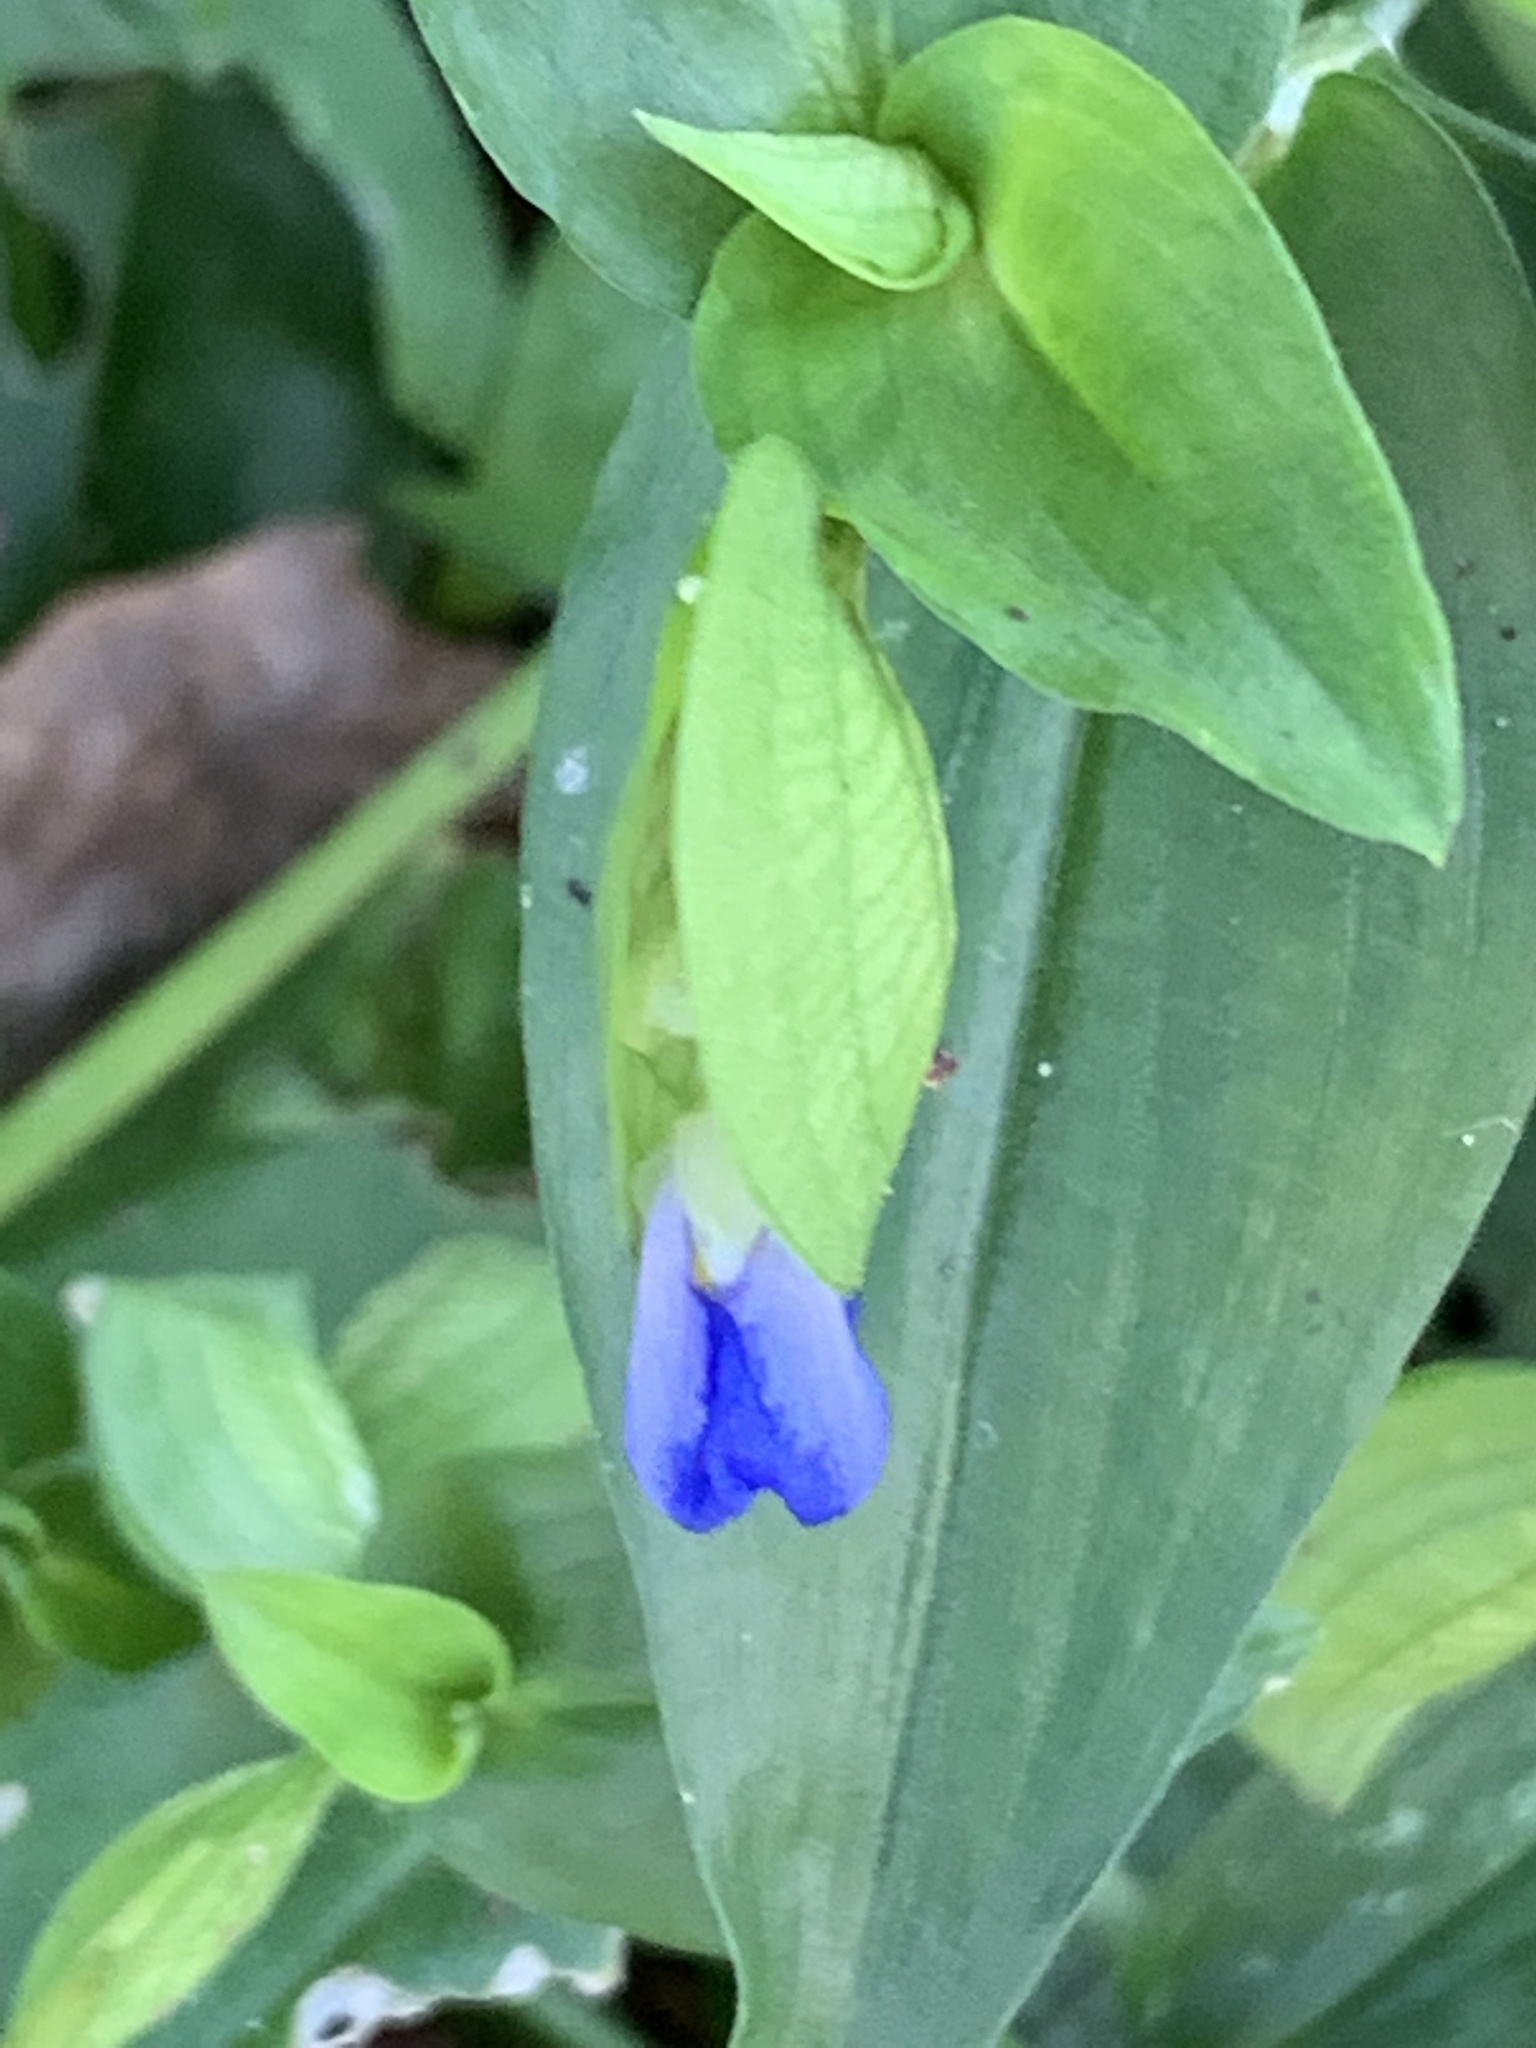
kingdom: Plantae
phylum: Tracheophyta
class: Liliopsida
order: Commelinales
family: Commelinaceae
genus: Commelina
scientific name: Commelina communis
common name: Asiatic dayflower
